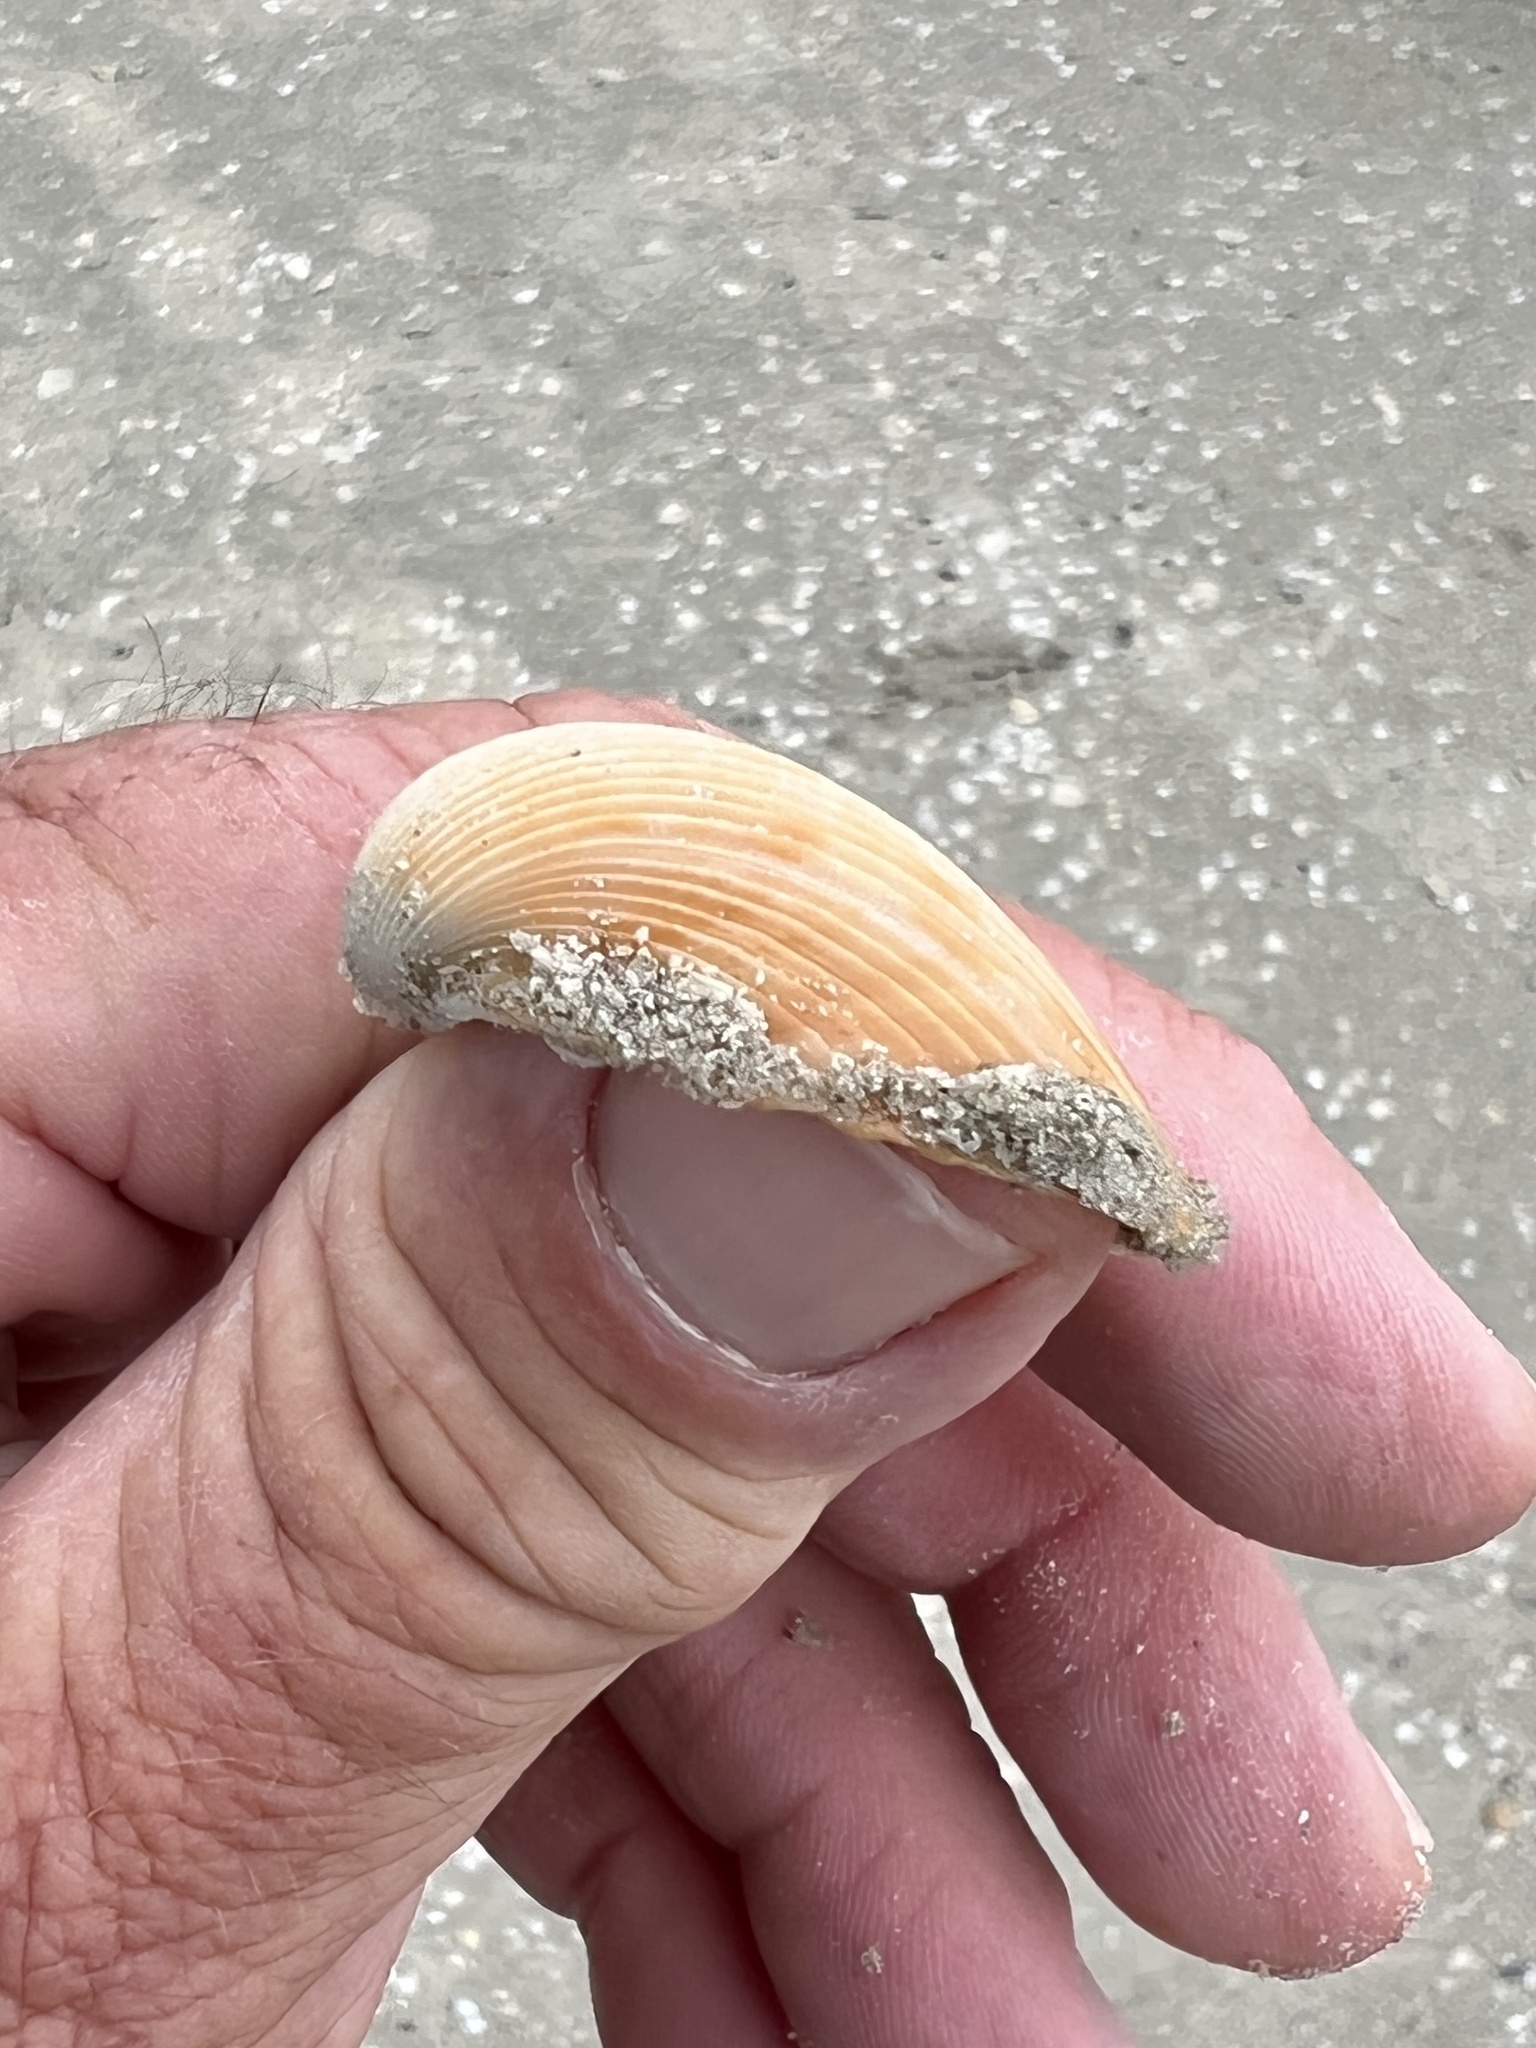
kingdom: Animalia
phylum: Mollusca
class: Bivalvia
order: Cardiida
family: Cardiidae
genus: Dinocardium
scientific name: Dinocardium robustum
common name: Atlantic giant cockle
